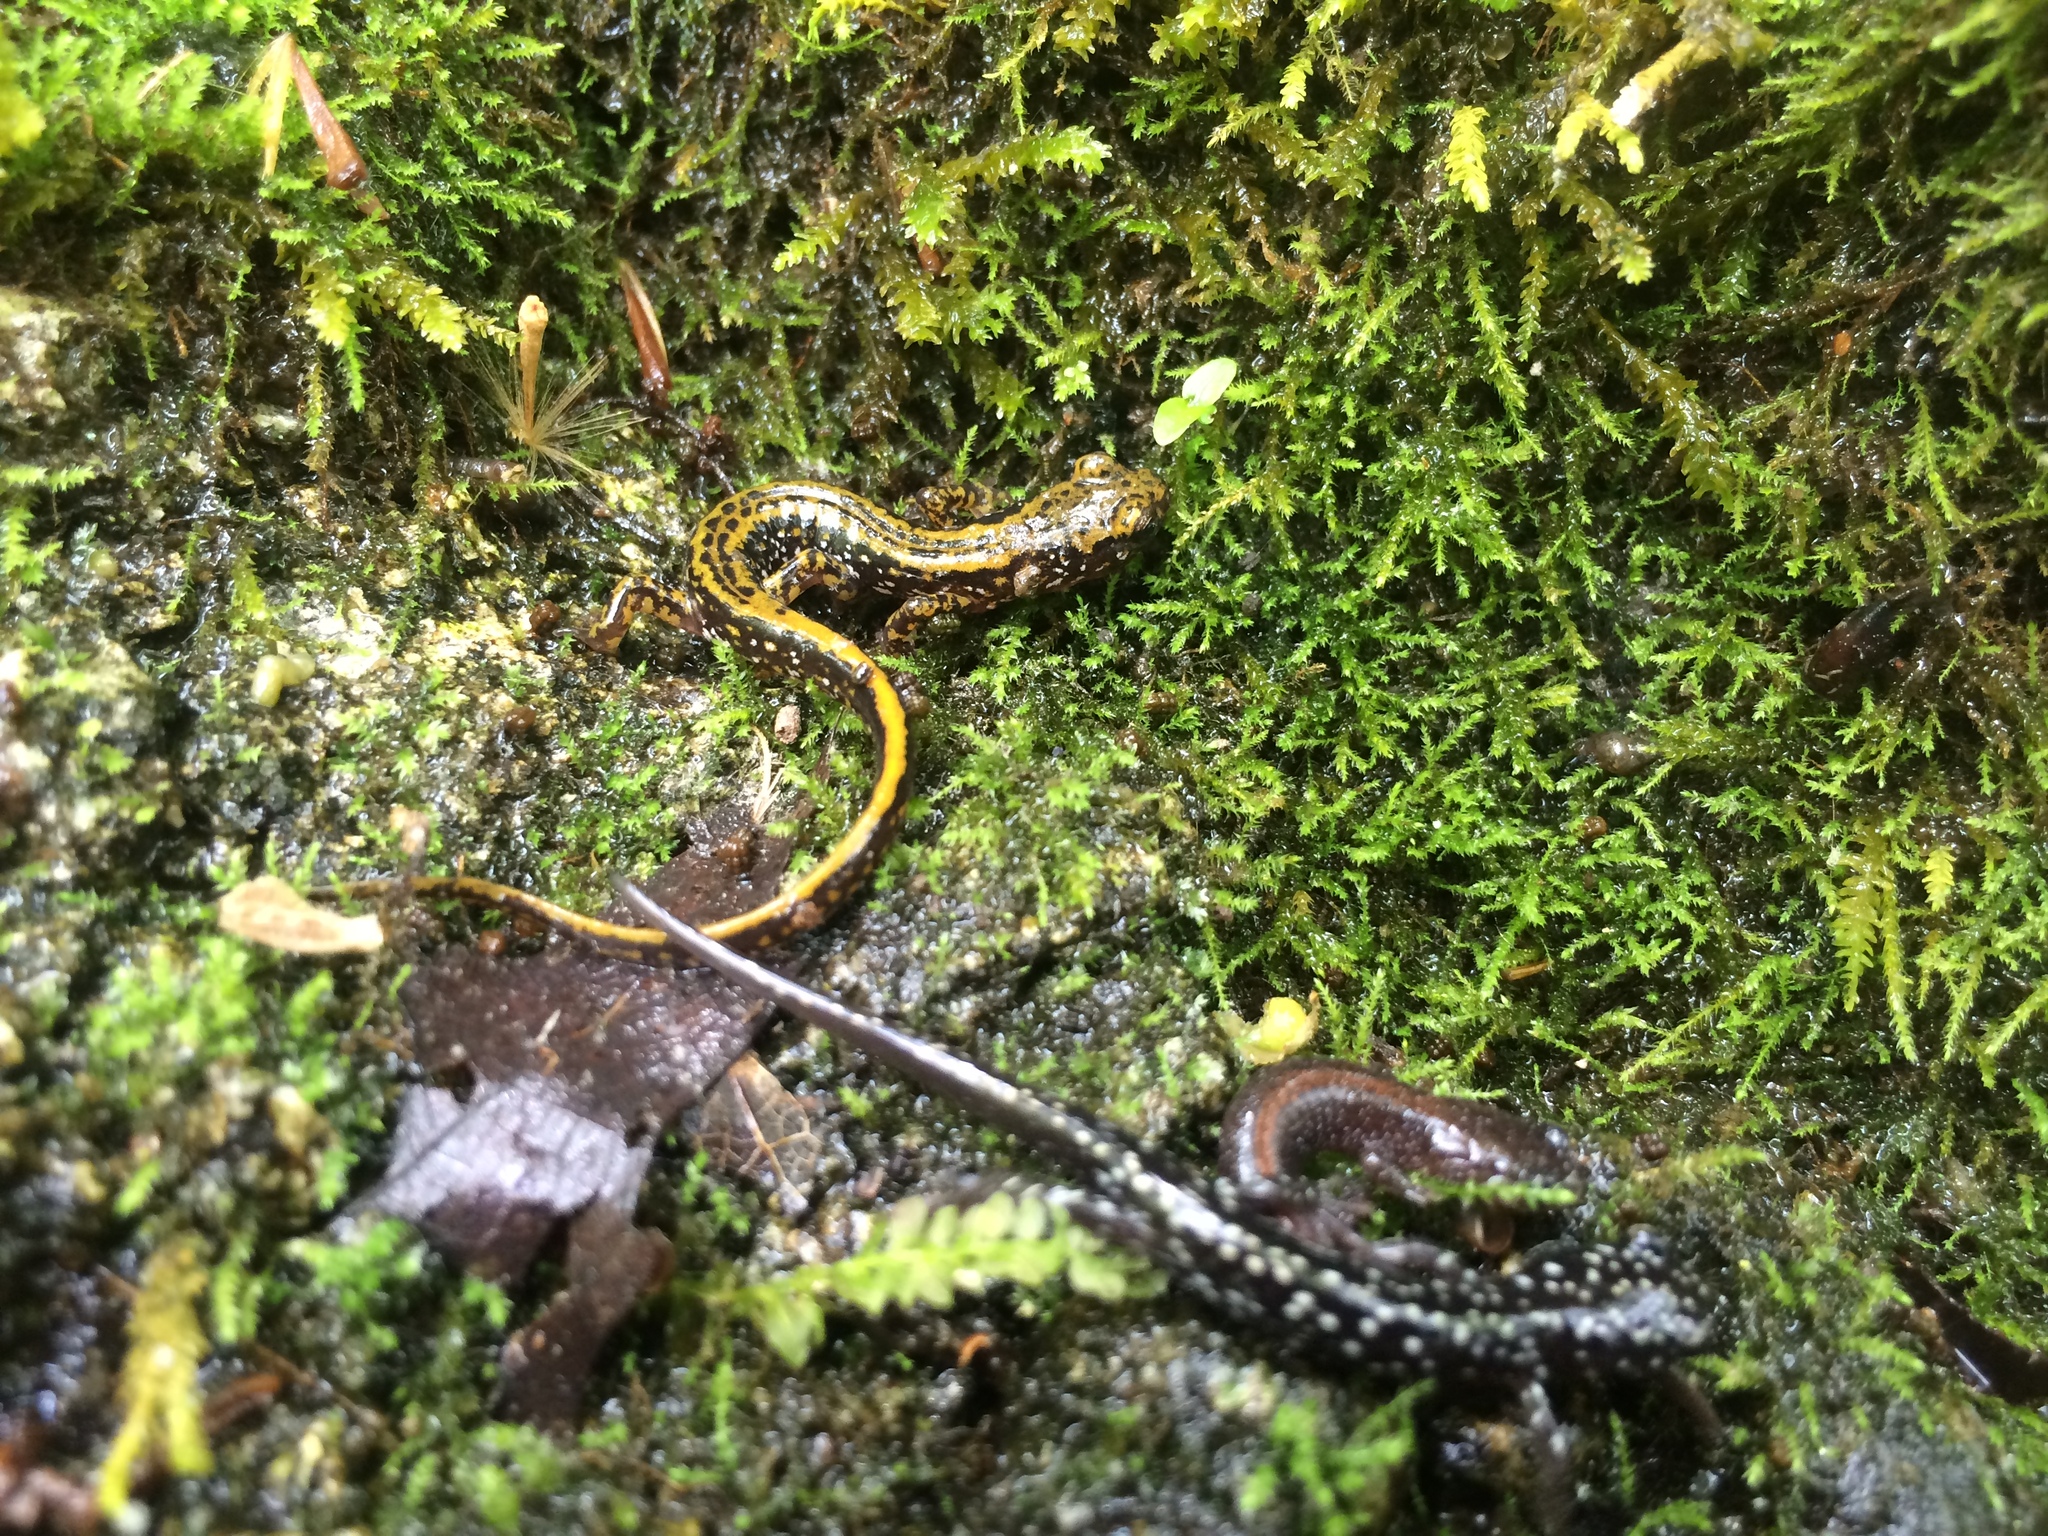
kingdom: Animalia
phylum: Chordata
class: Amphibia
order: Caudata
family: Plethodontidae
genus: Eurycea
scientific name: Eurycea longicauda
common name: Long-tailed salamander
